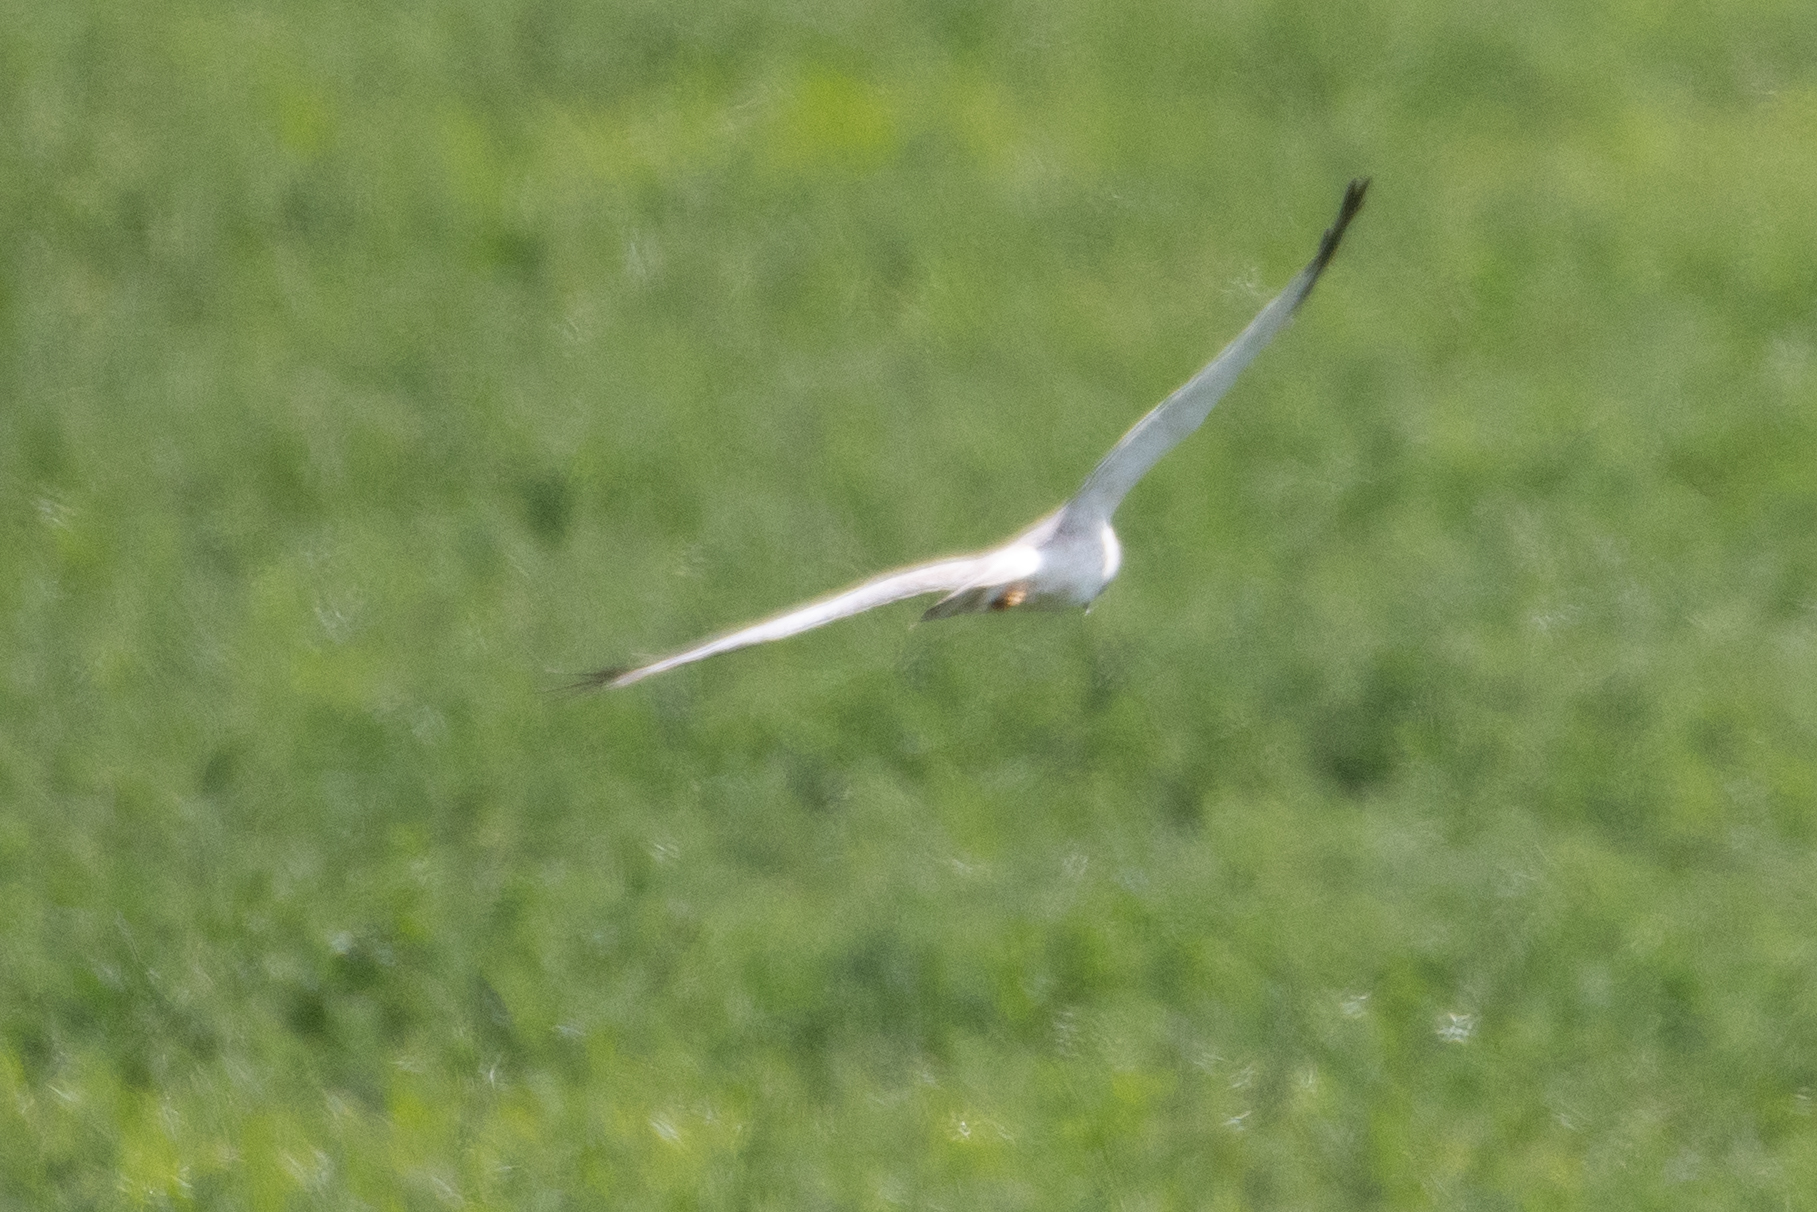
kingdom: Animalia
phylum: Chordata
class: Aves
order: Accipitriformes
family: Accipitridae
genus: Circus
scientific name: Circus cyaneus
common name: Hen harrier
